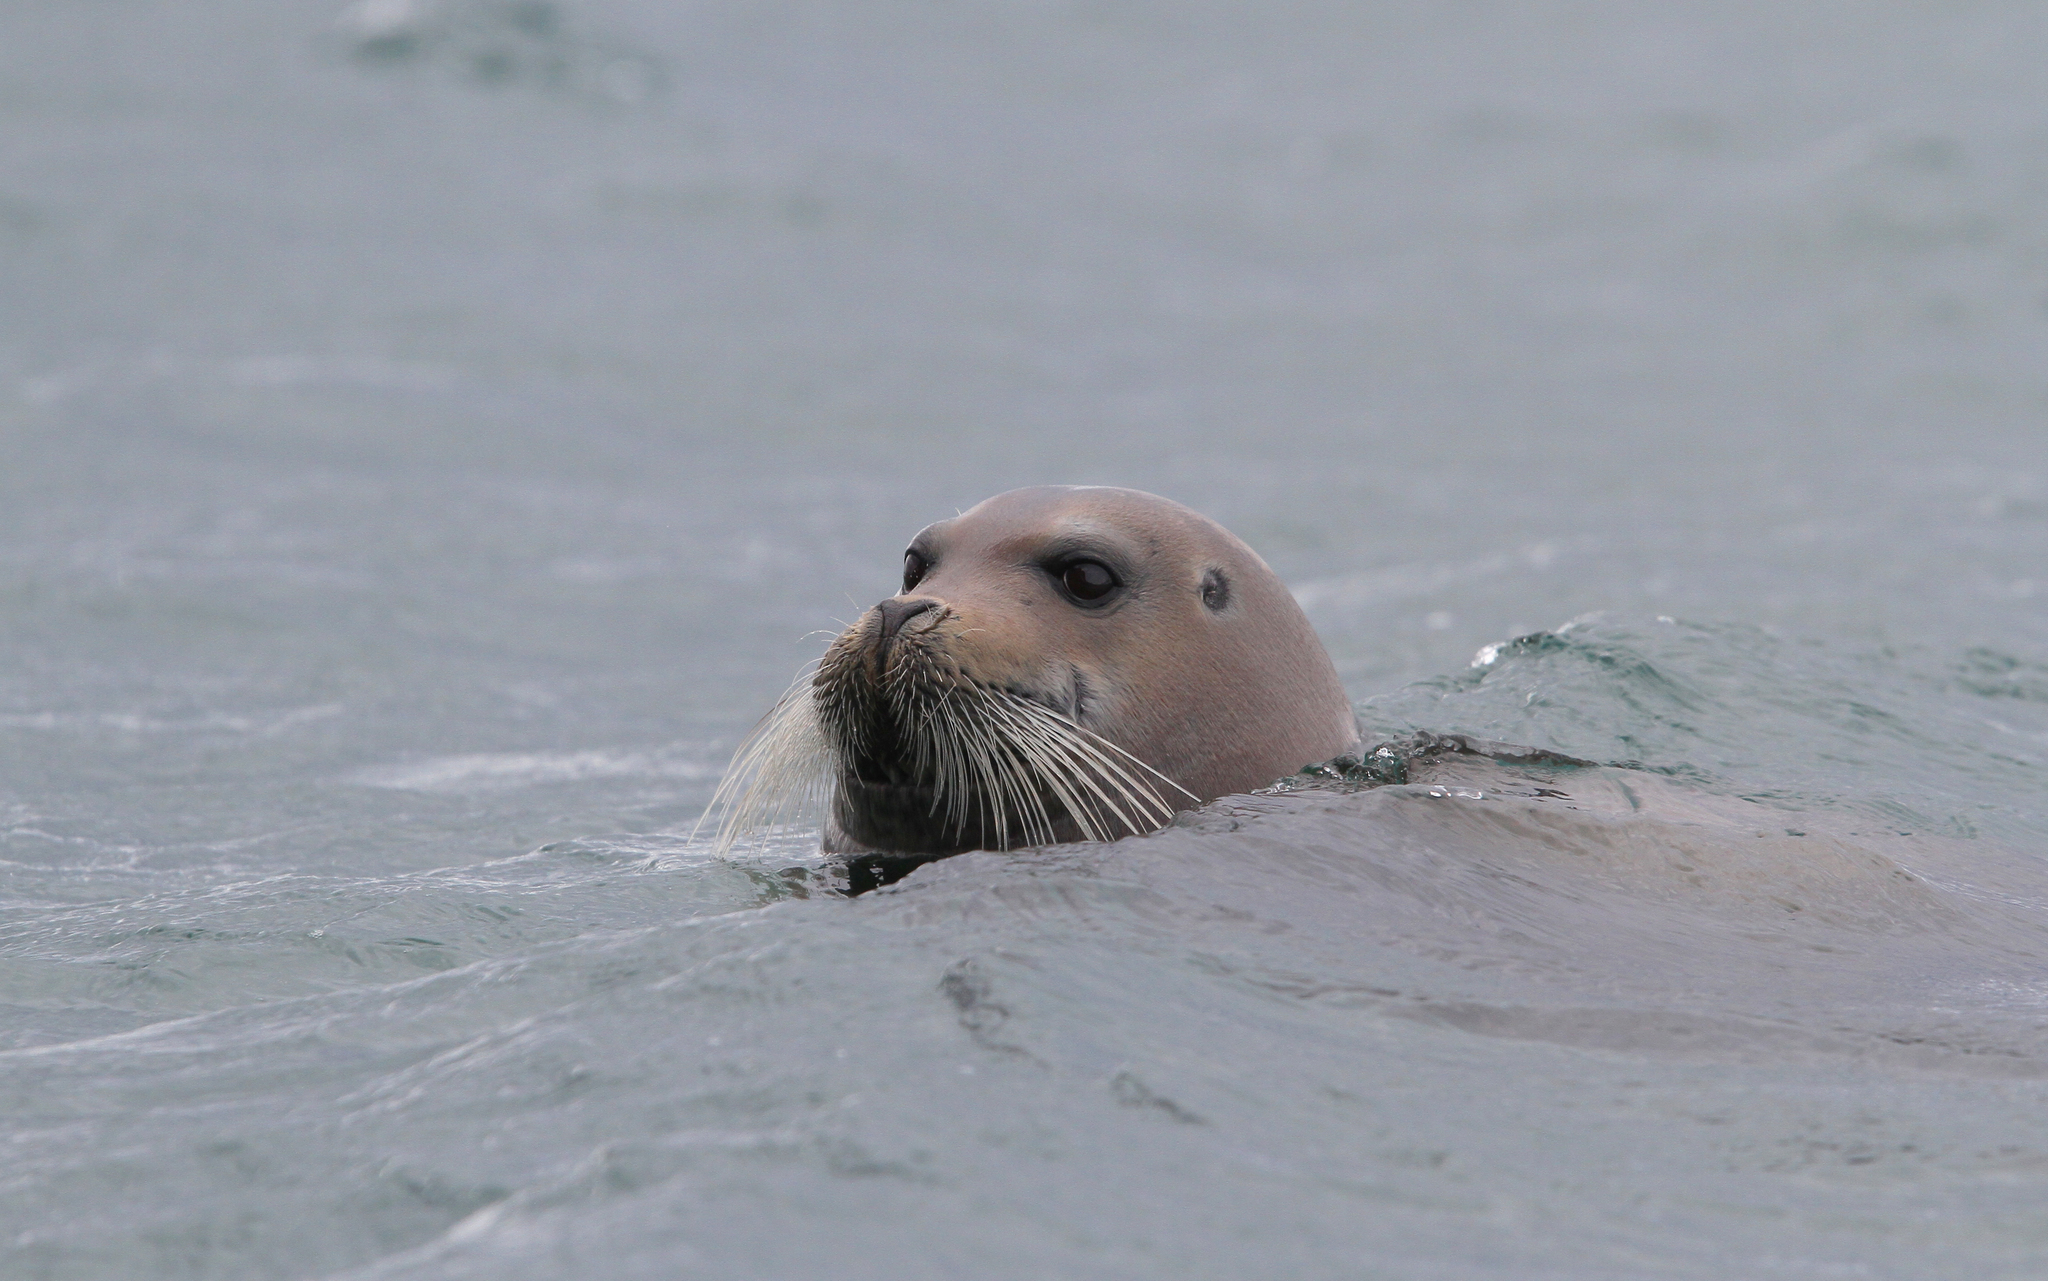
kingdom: Animalia
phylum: Chordata
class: Mammalia
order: Carnivora
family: Phocidae
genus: Erignathus
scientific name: Erignathus barbatus
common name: Bearded seal
